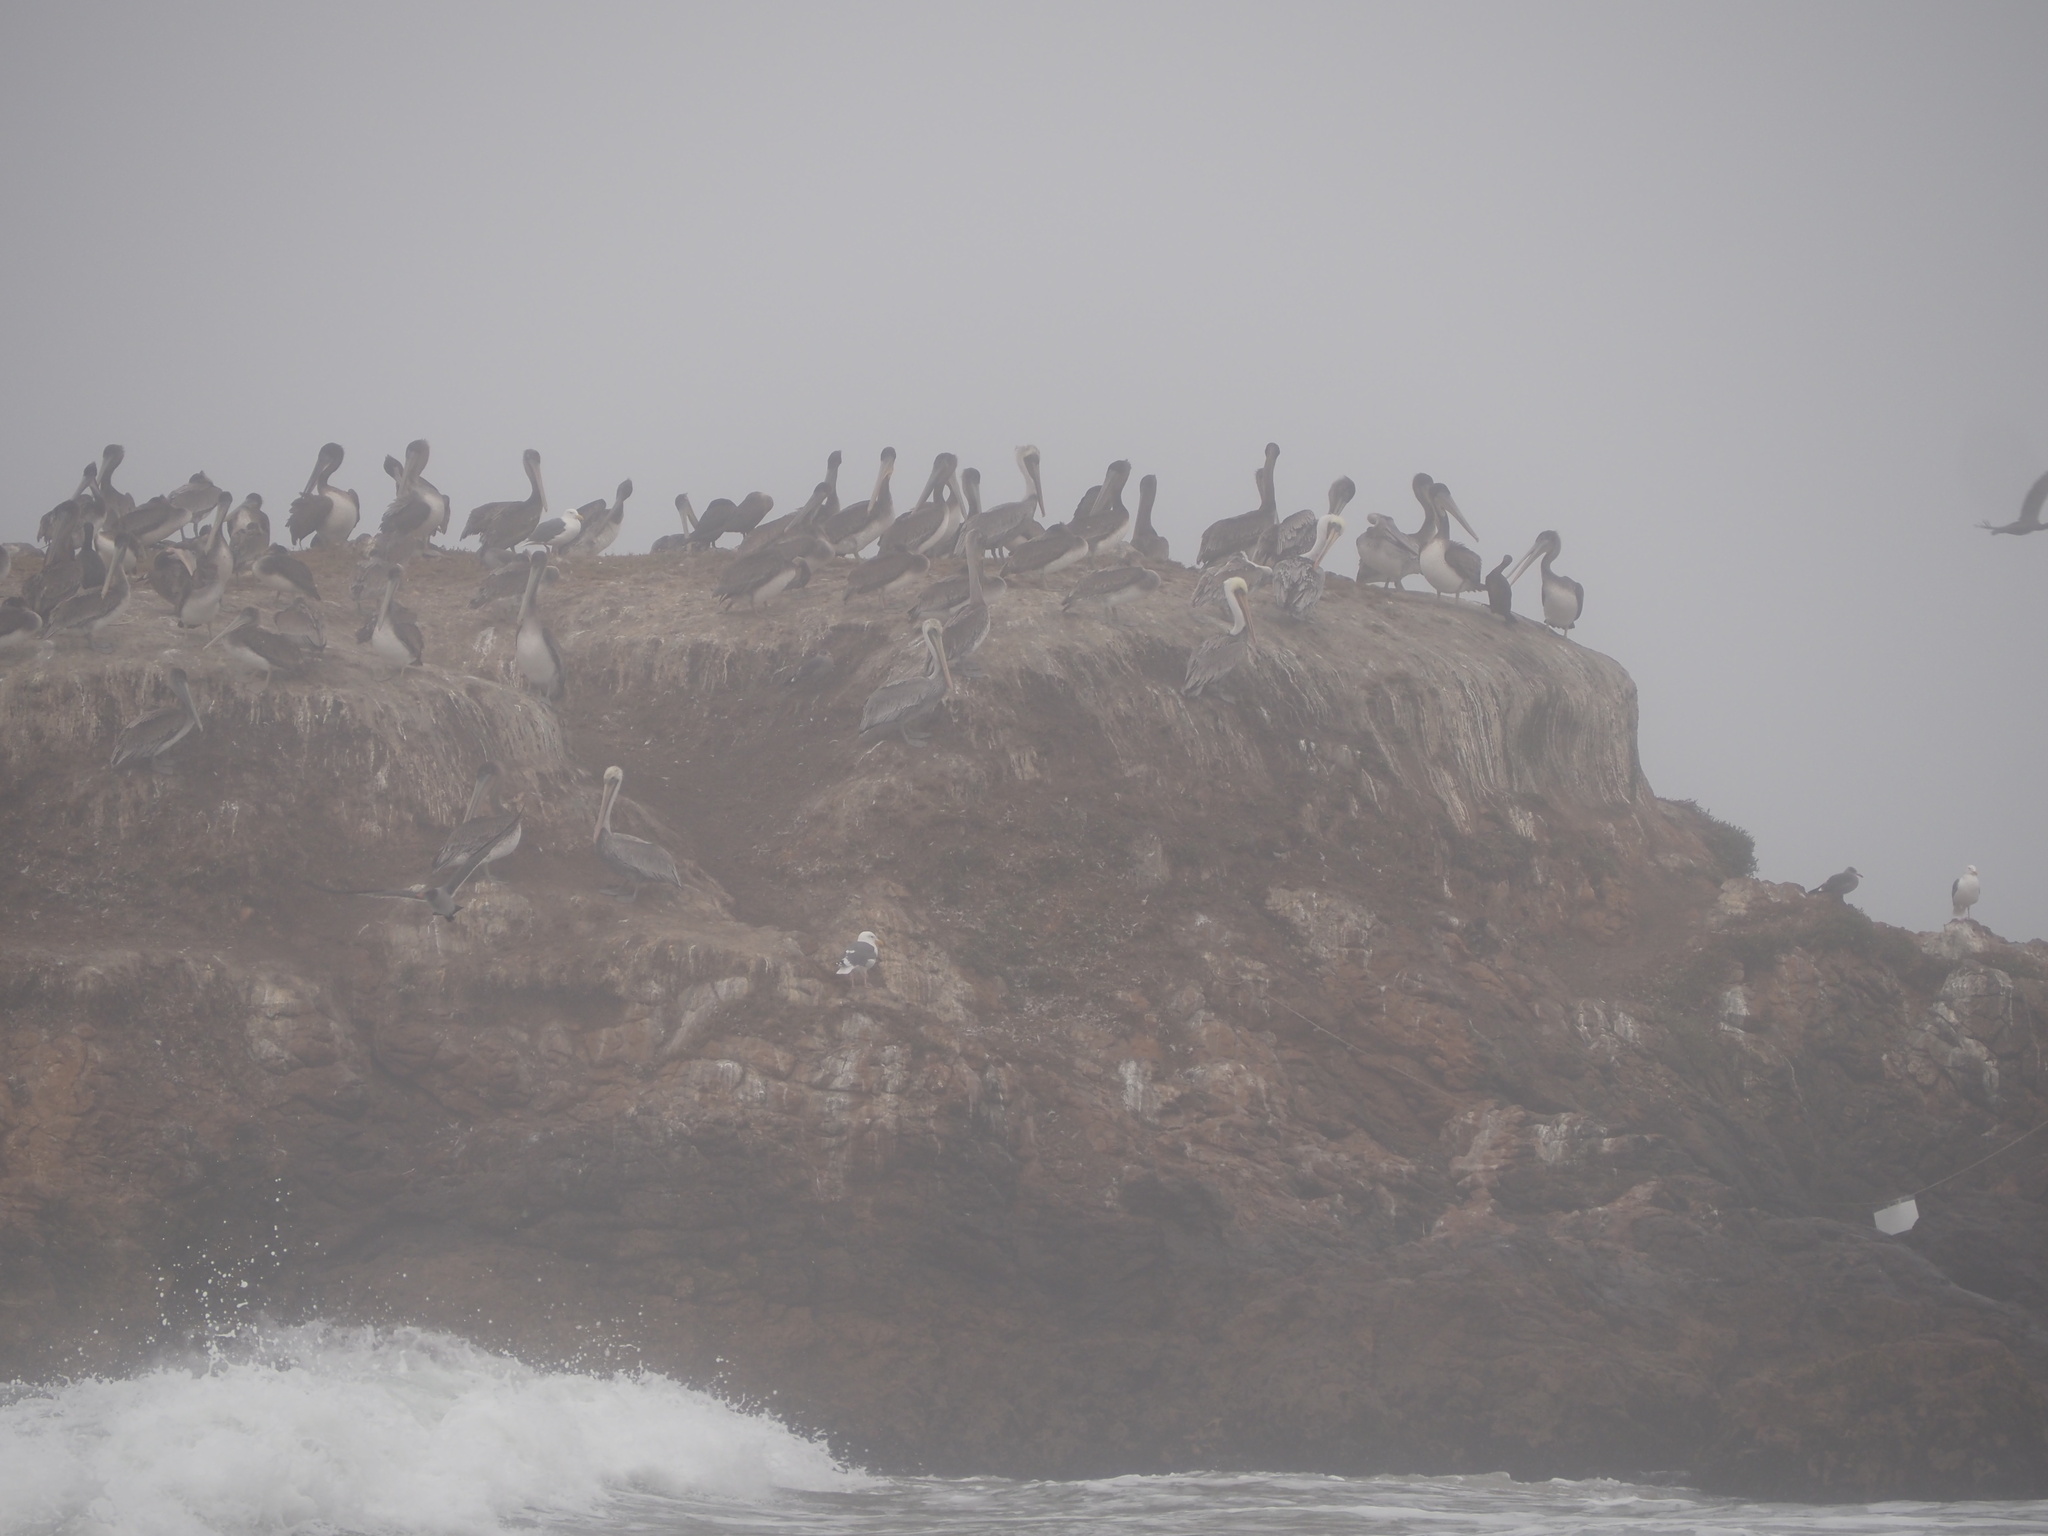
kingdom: Animalia
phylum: Chordata
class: Aves
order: Pelecaniformes
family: Pelecanidae
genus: Pelecanus
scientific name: Pelecanus occidentalis
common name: Brown pelican
